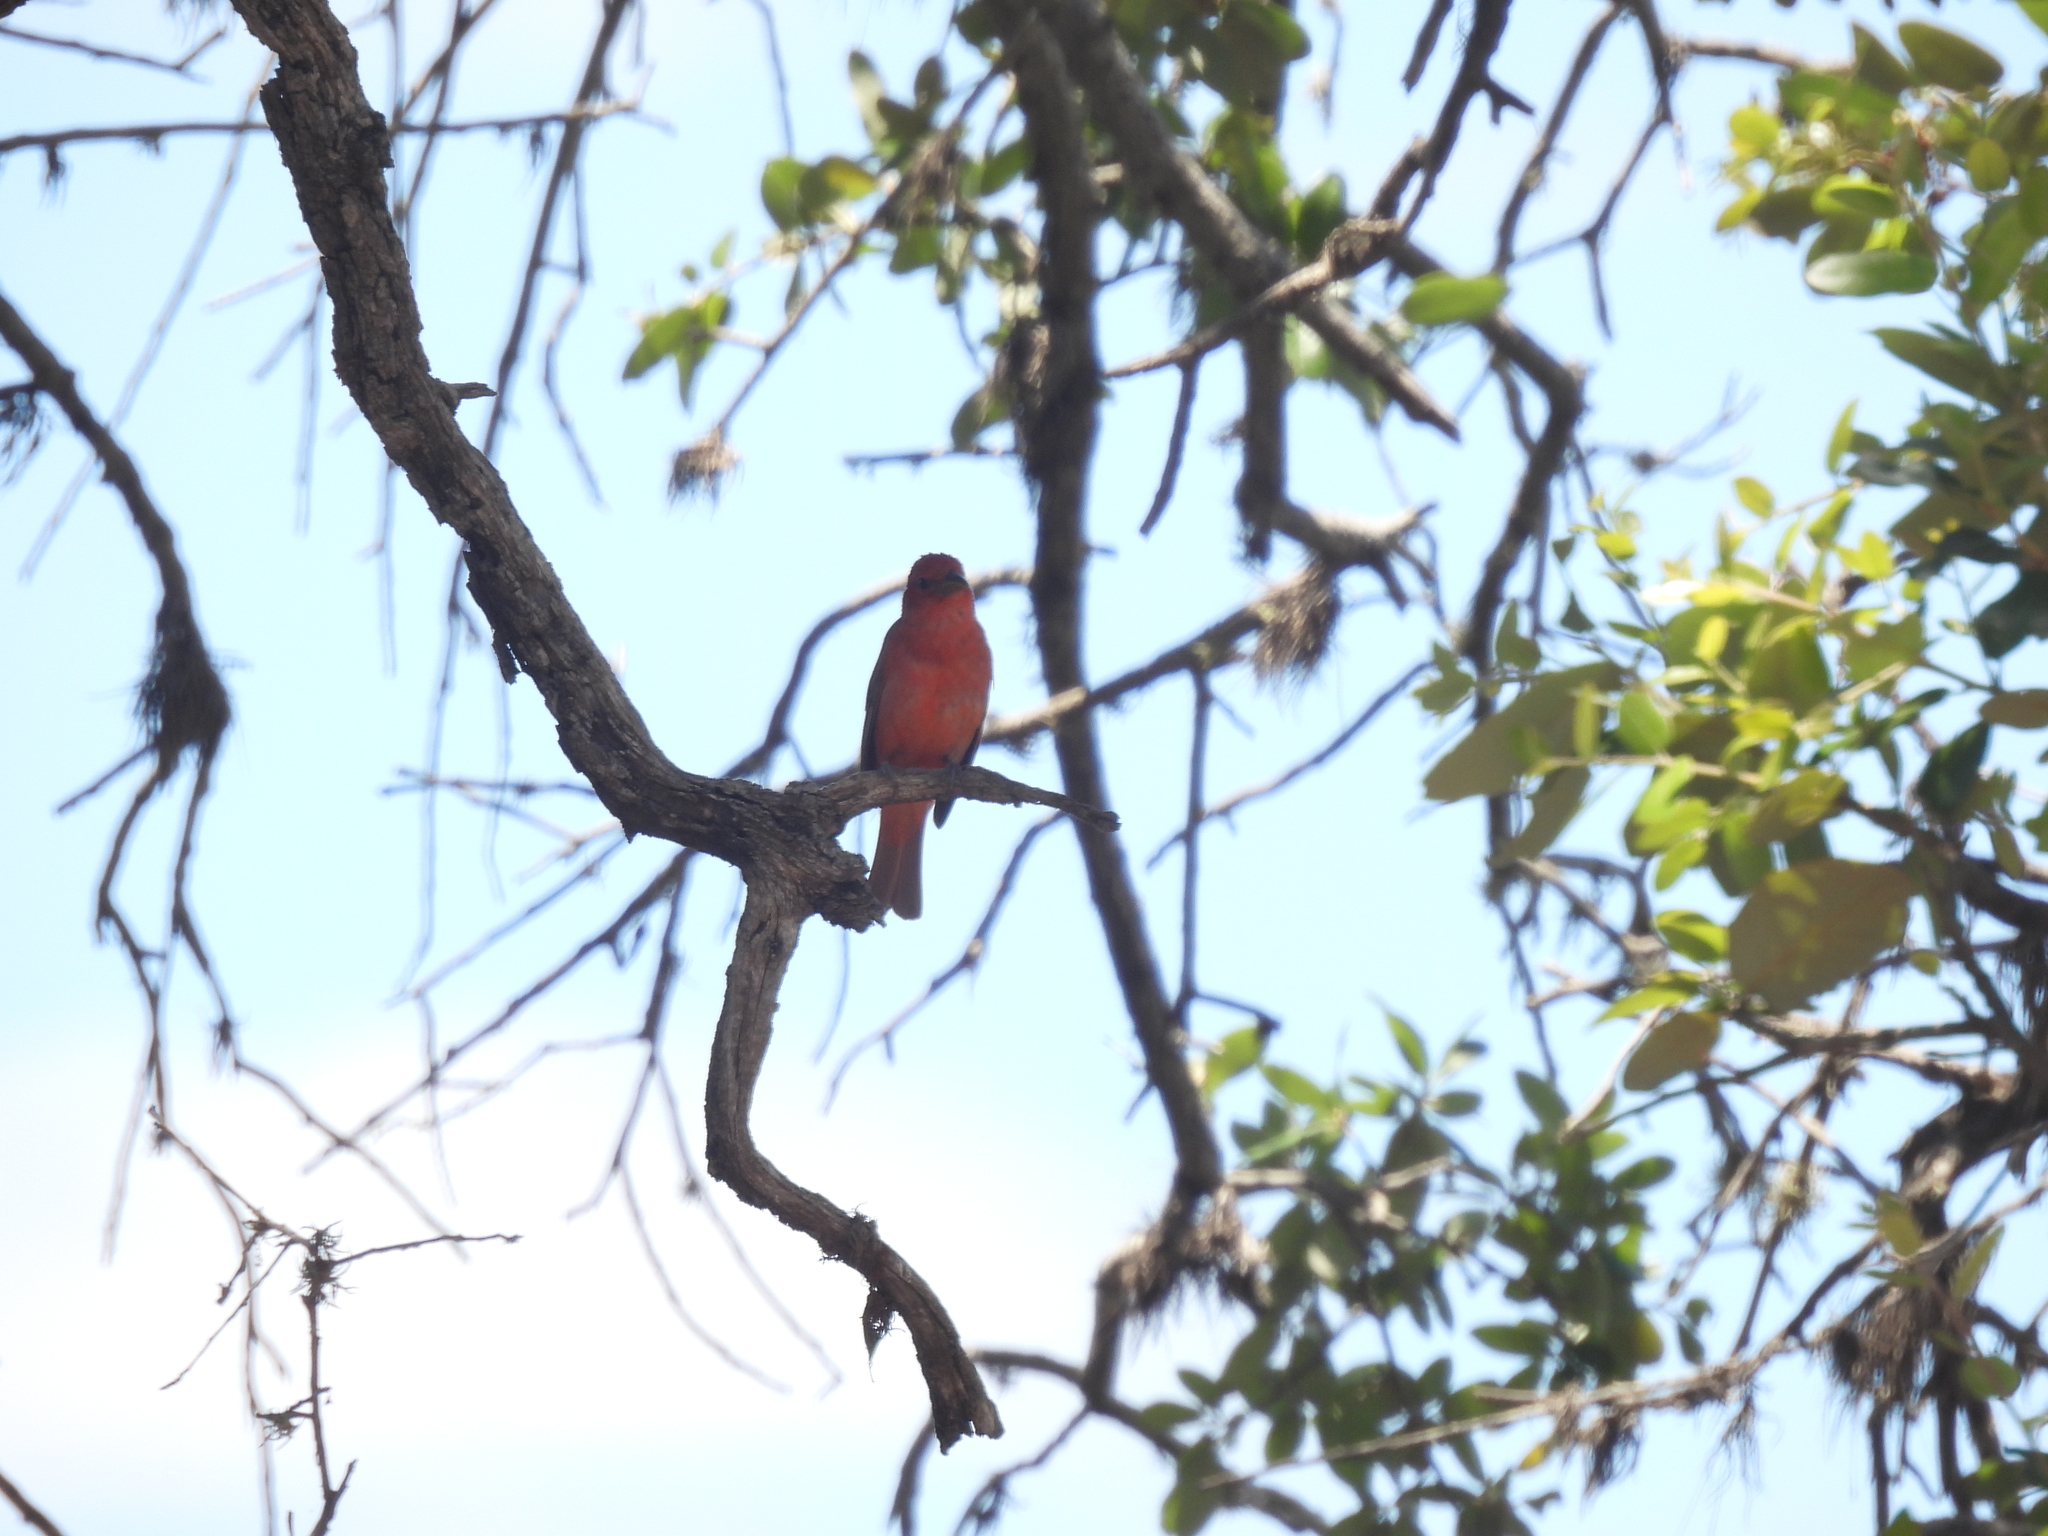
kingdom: Animalia
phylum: Chordata
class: Aves
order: Passeriformes
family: Cardinalidae
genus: Piranga
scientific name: Piranga rubra
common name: Summer tanager
